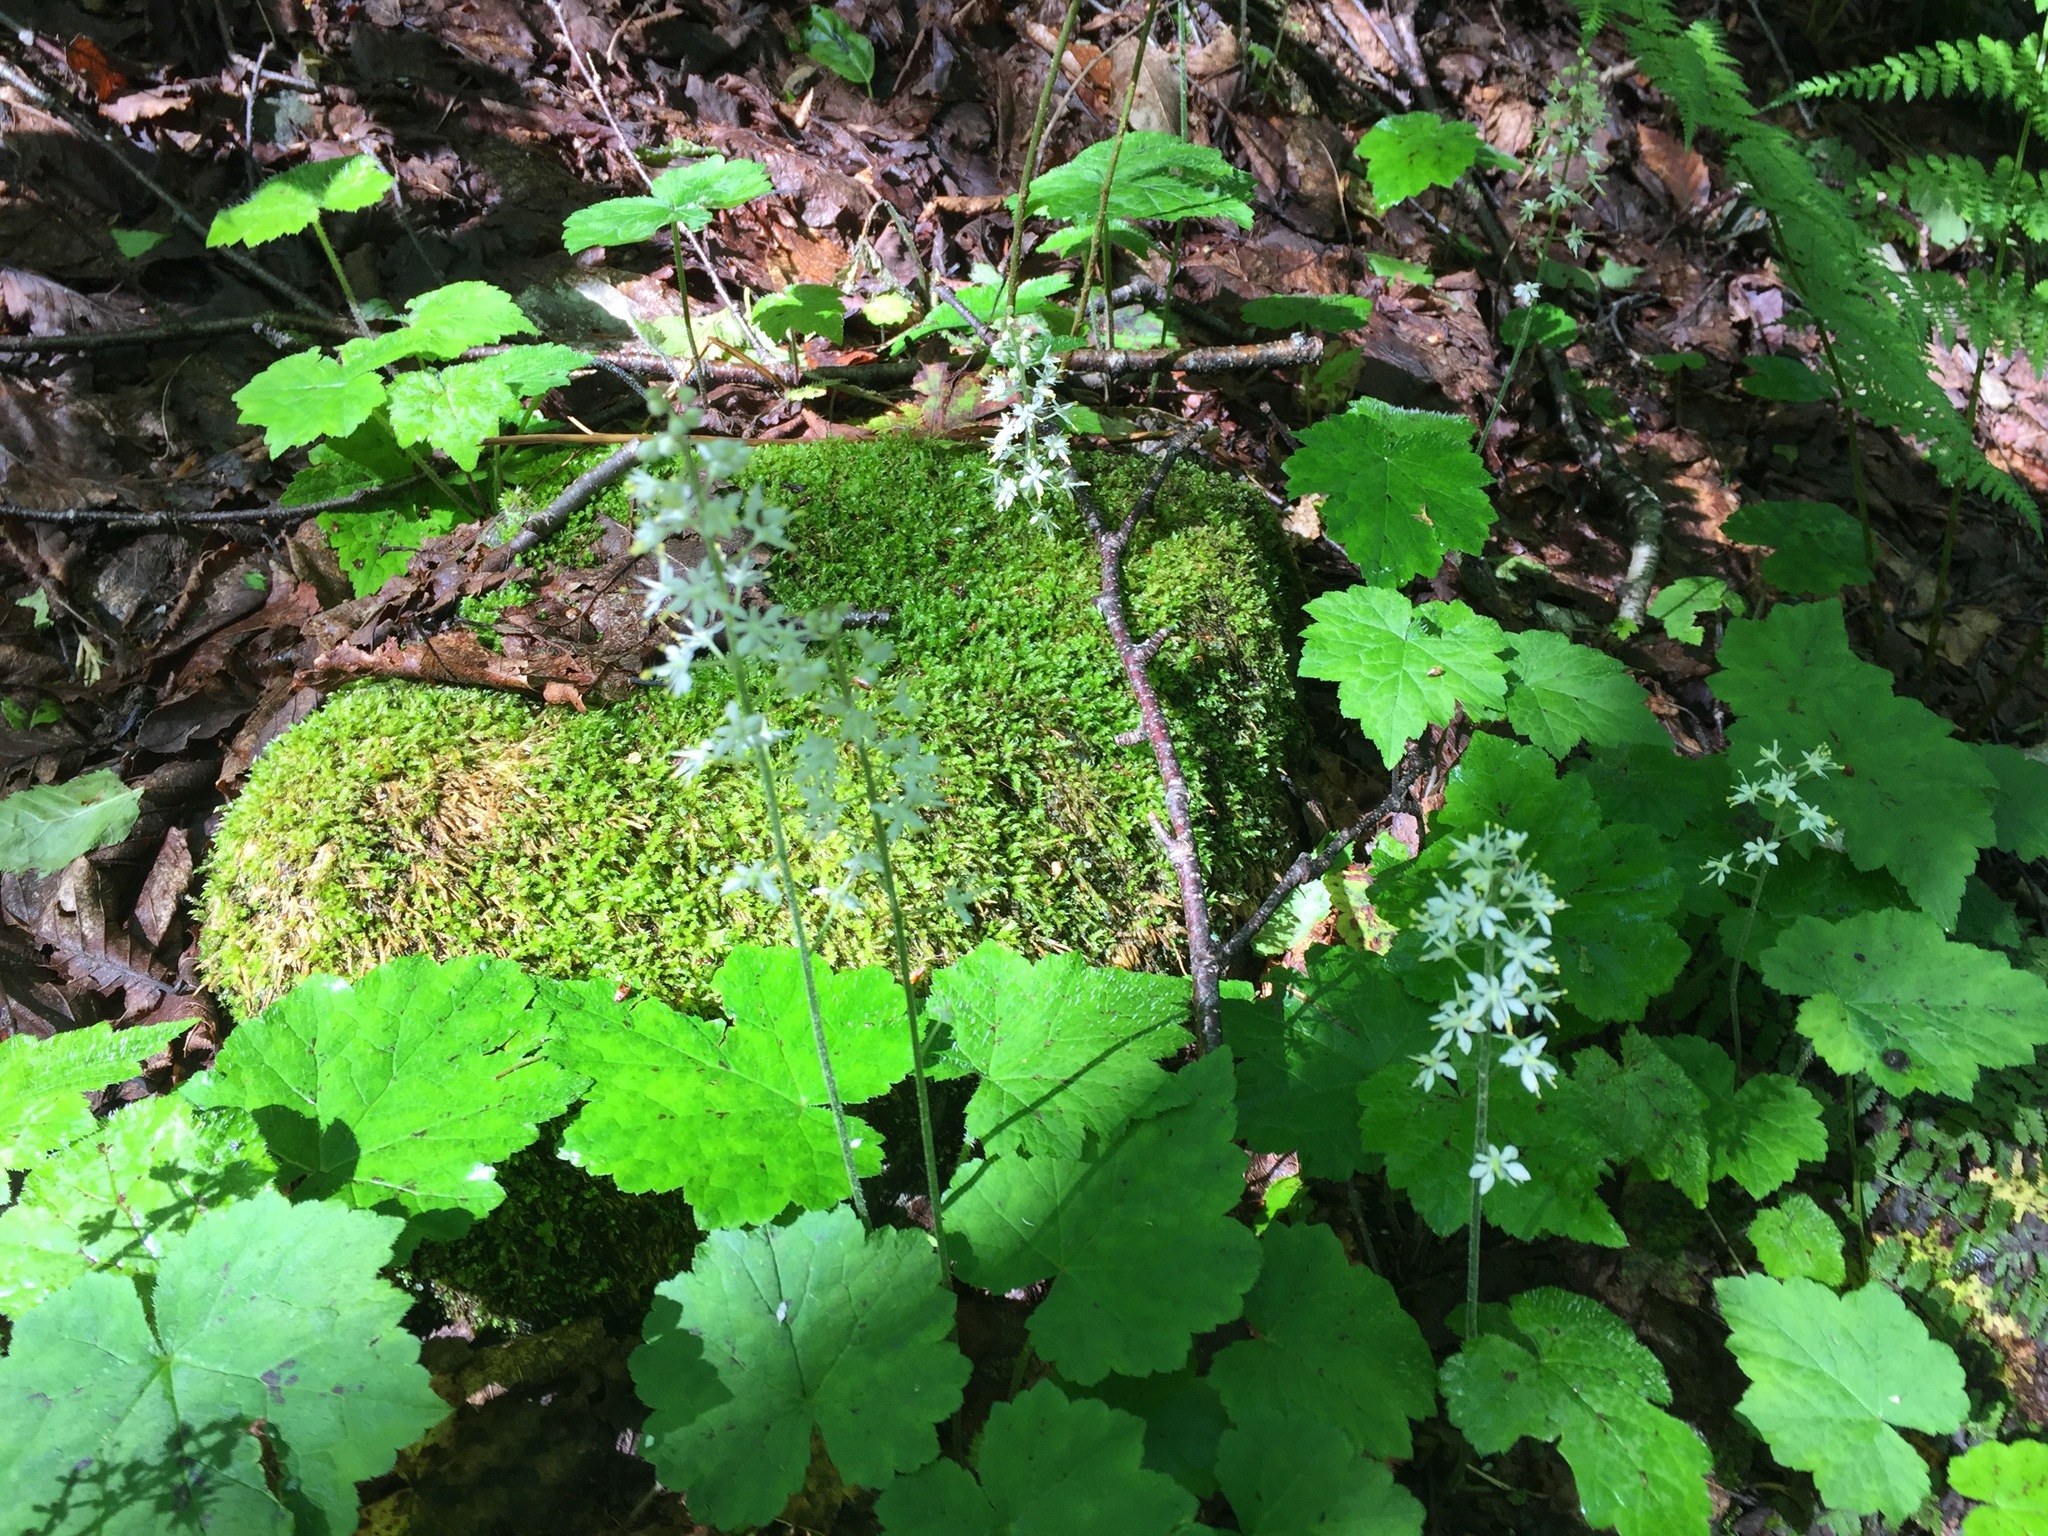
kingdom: Plantae
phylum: Tracheophyta
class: Magnoliopsida
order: Saxifragales
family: Saxifragaceae
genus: Tiarella
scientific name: Tiarella stolonifera
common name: Stoloniferous foamflower
